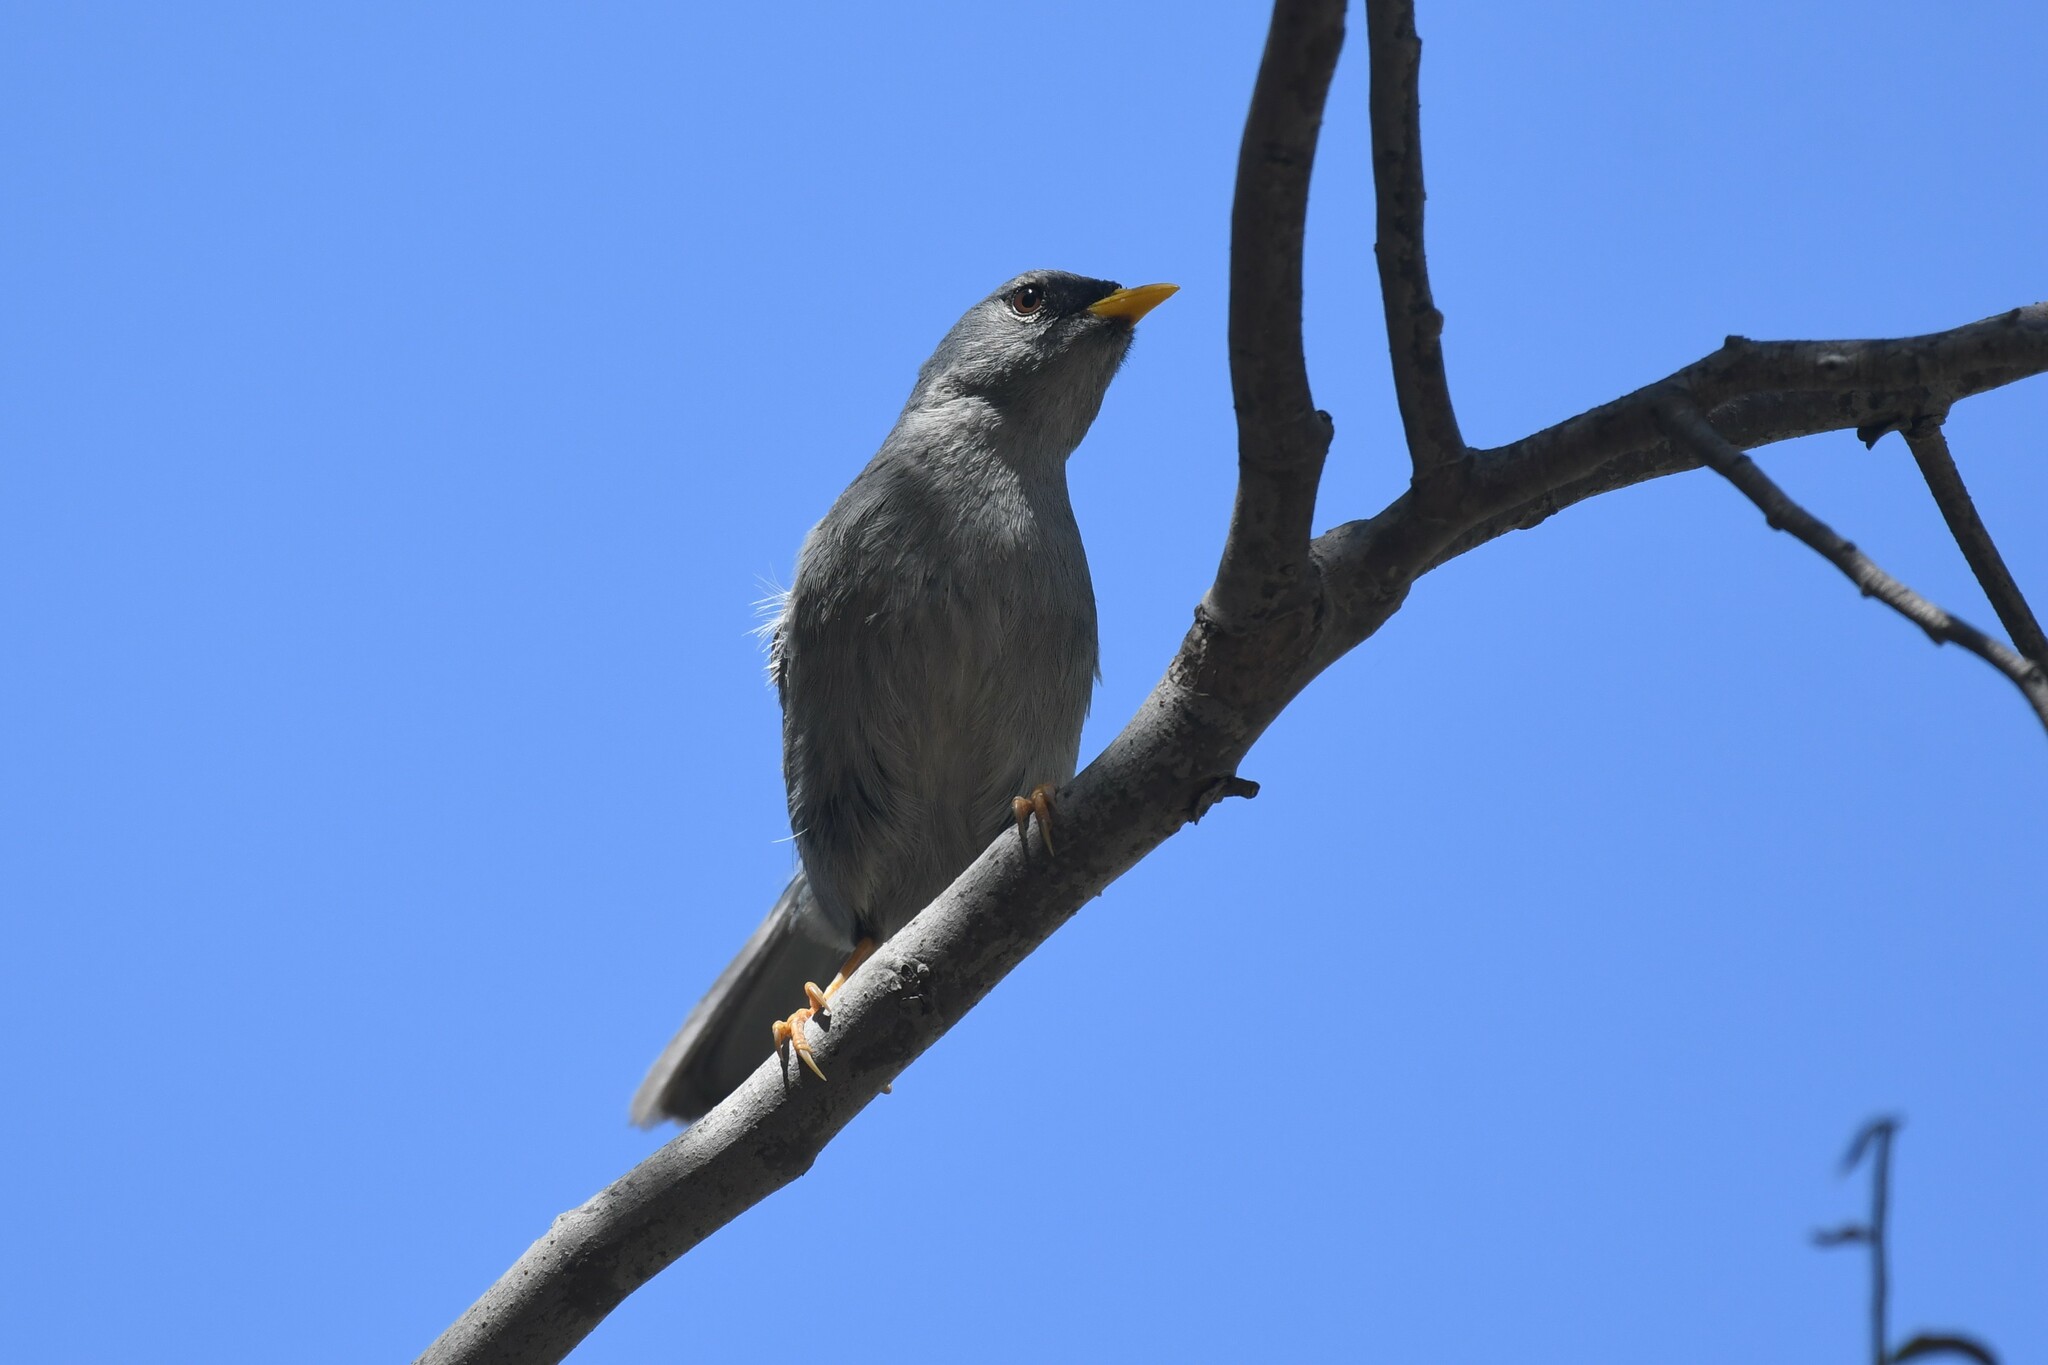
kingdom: Animalia
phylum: Chordata
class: Aves
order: Passeriformes
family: Thraupidae
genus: Xenospingus
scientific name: Xenospingus concolor
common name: Slender-billed finch
